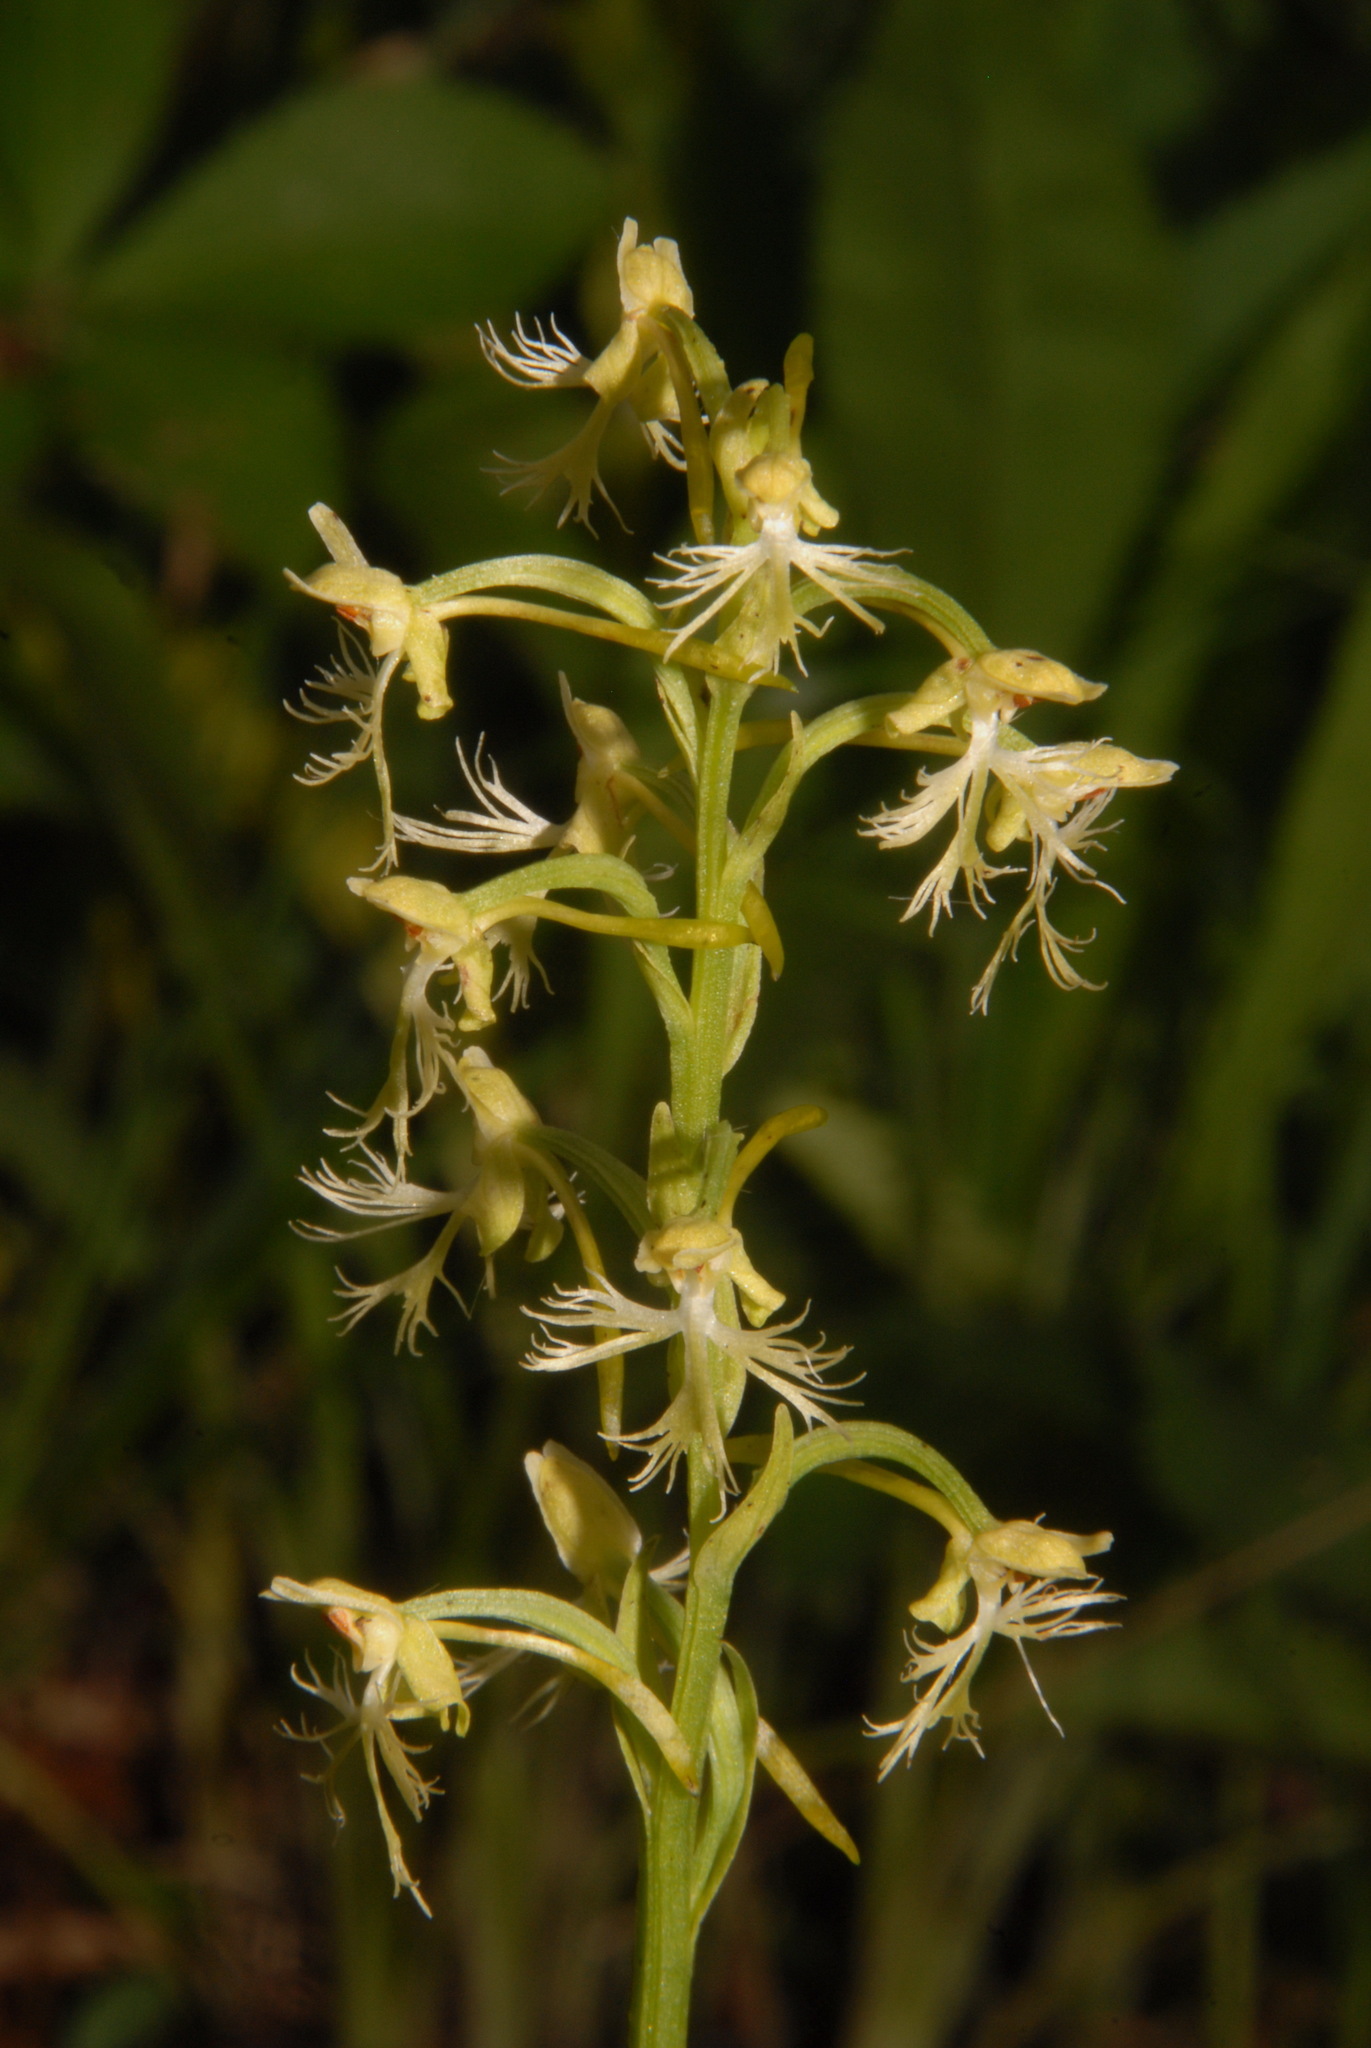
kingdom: Plantae
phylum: Tracheophyta
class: Liliopsida
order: Asparagales
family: Orchidaceae
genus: Platanthera
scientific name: Platanthera lacera
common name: Green fringed orchid
